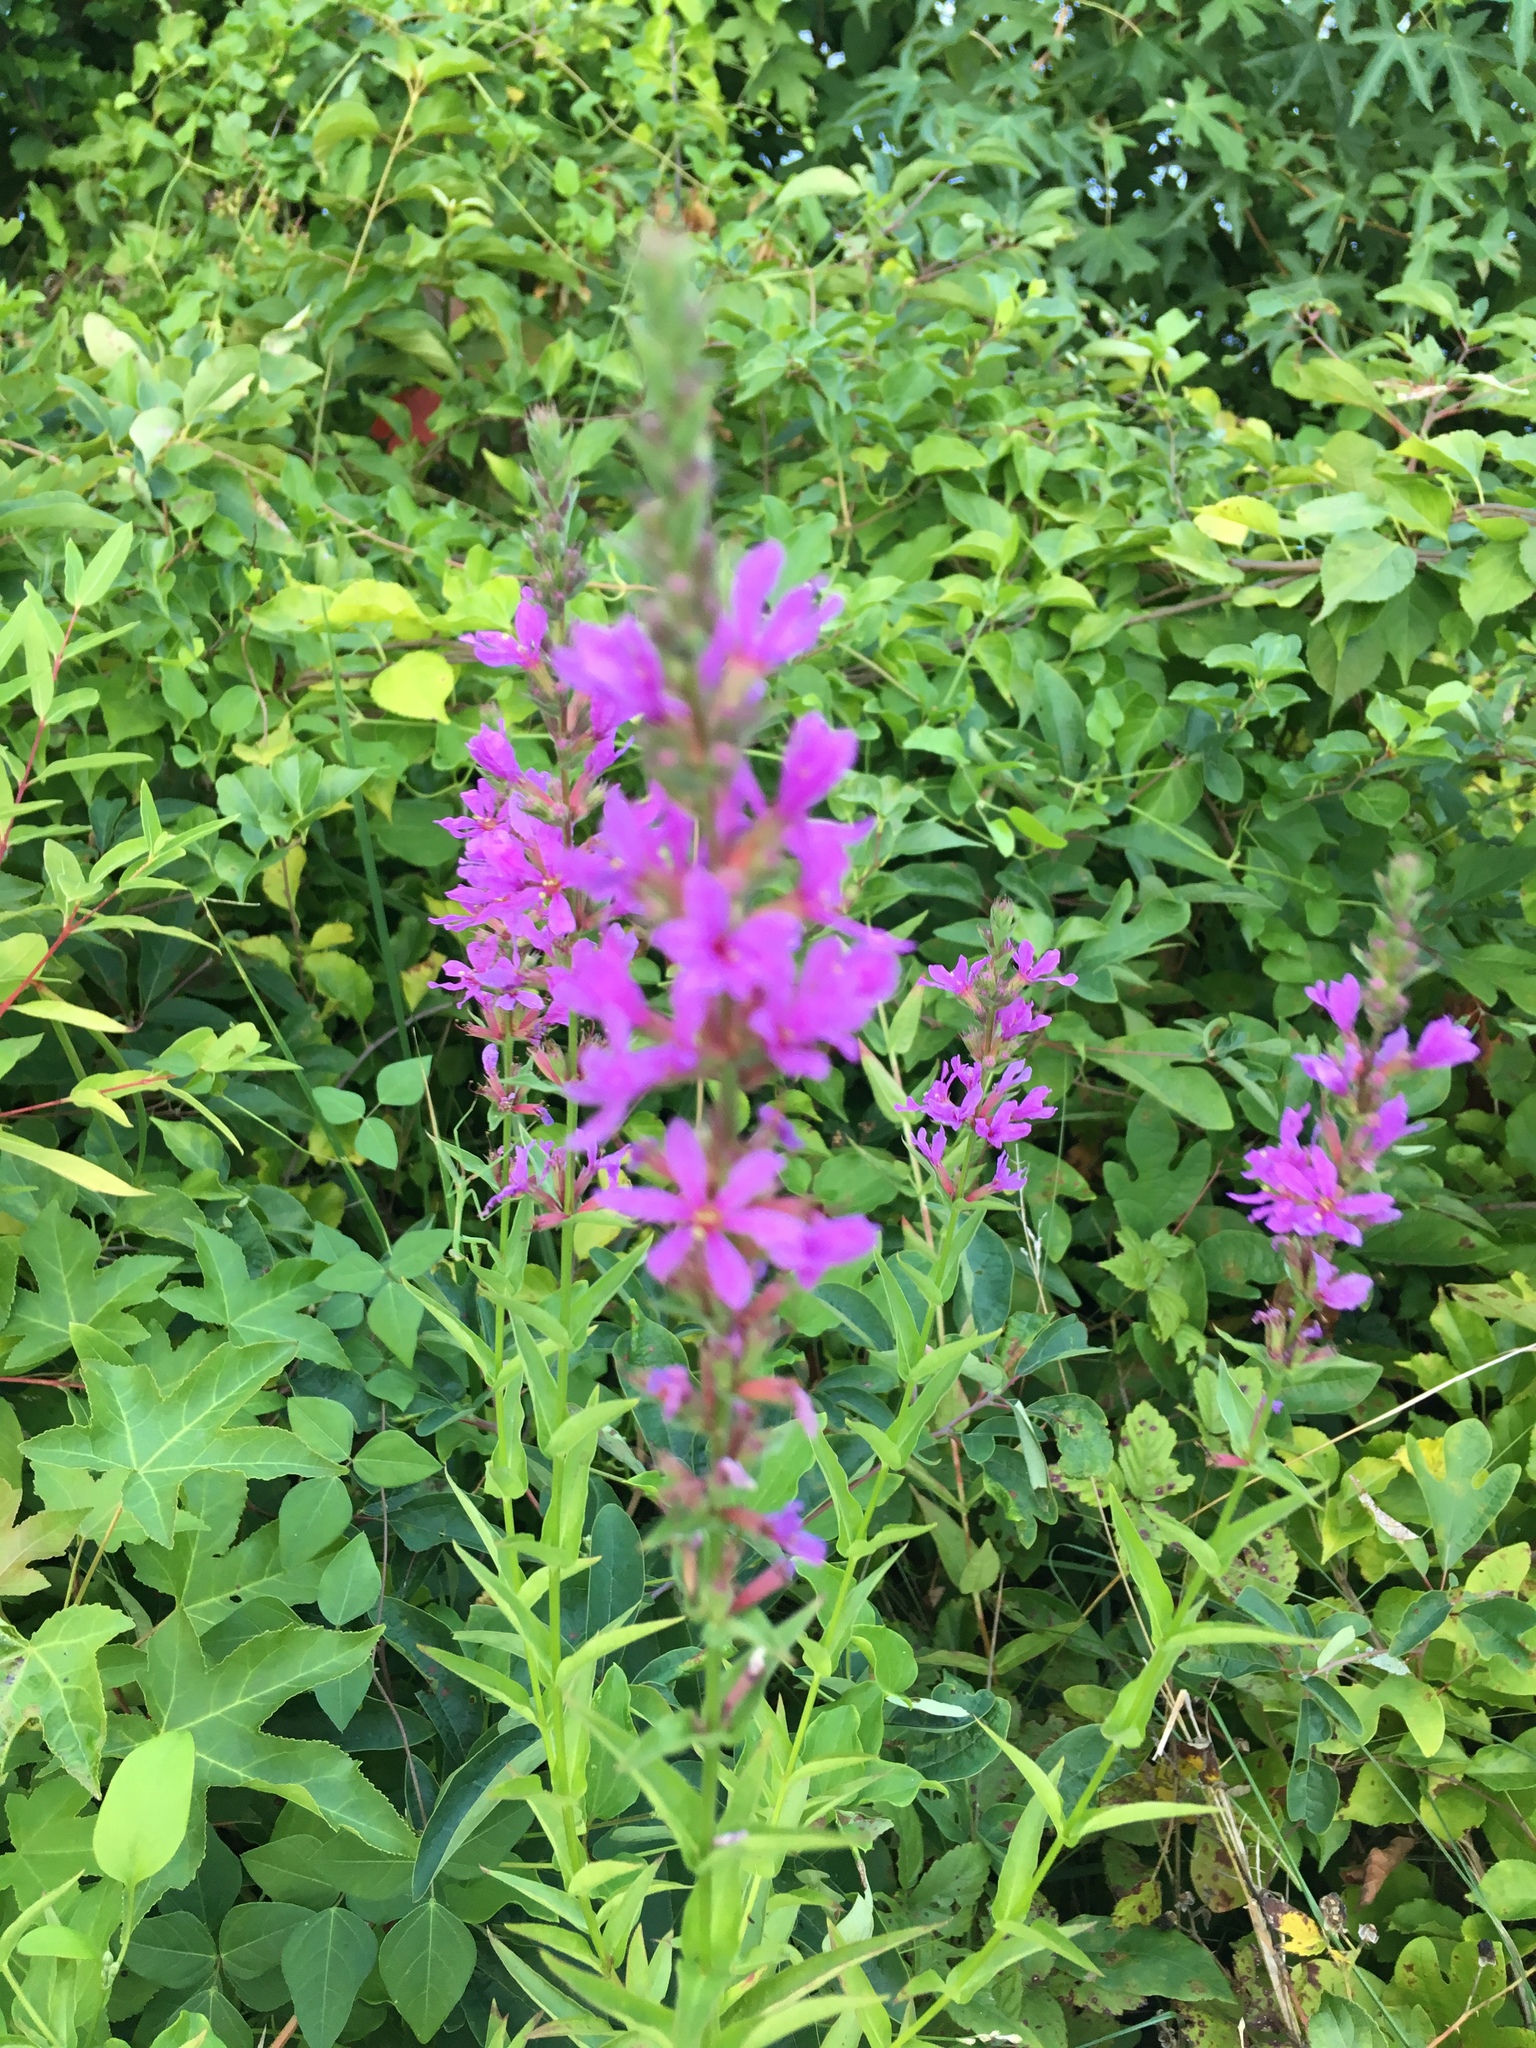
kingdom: Plantae
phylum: Tracheophyta
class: Magnoliopsida
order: Myrtales
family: Lythraceae
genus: Lythrum
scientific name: Lythrum salicaria
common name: Purple loosestrife
